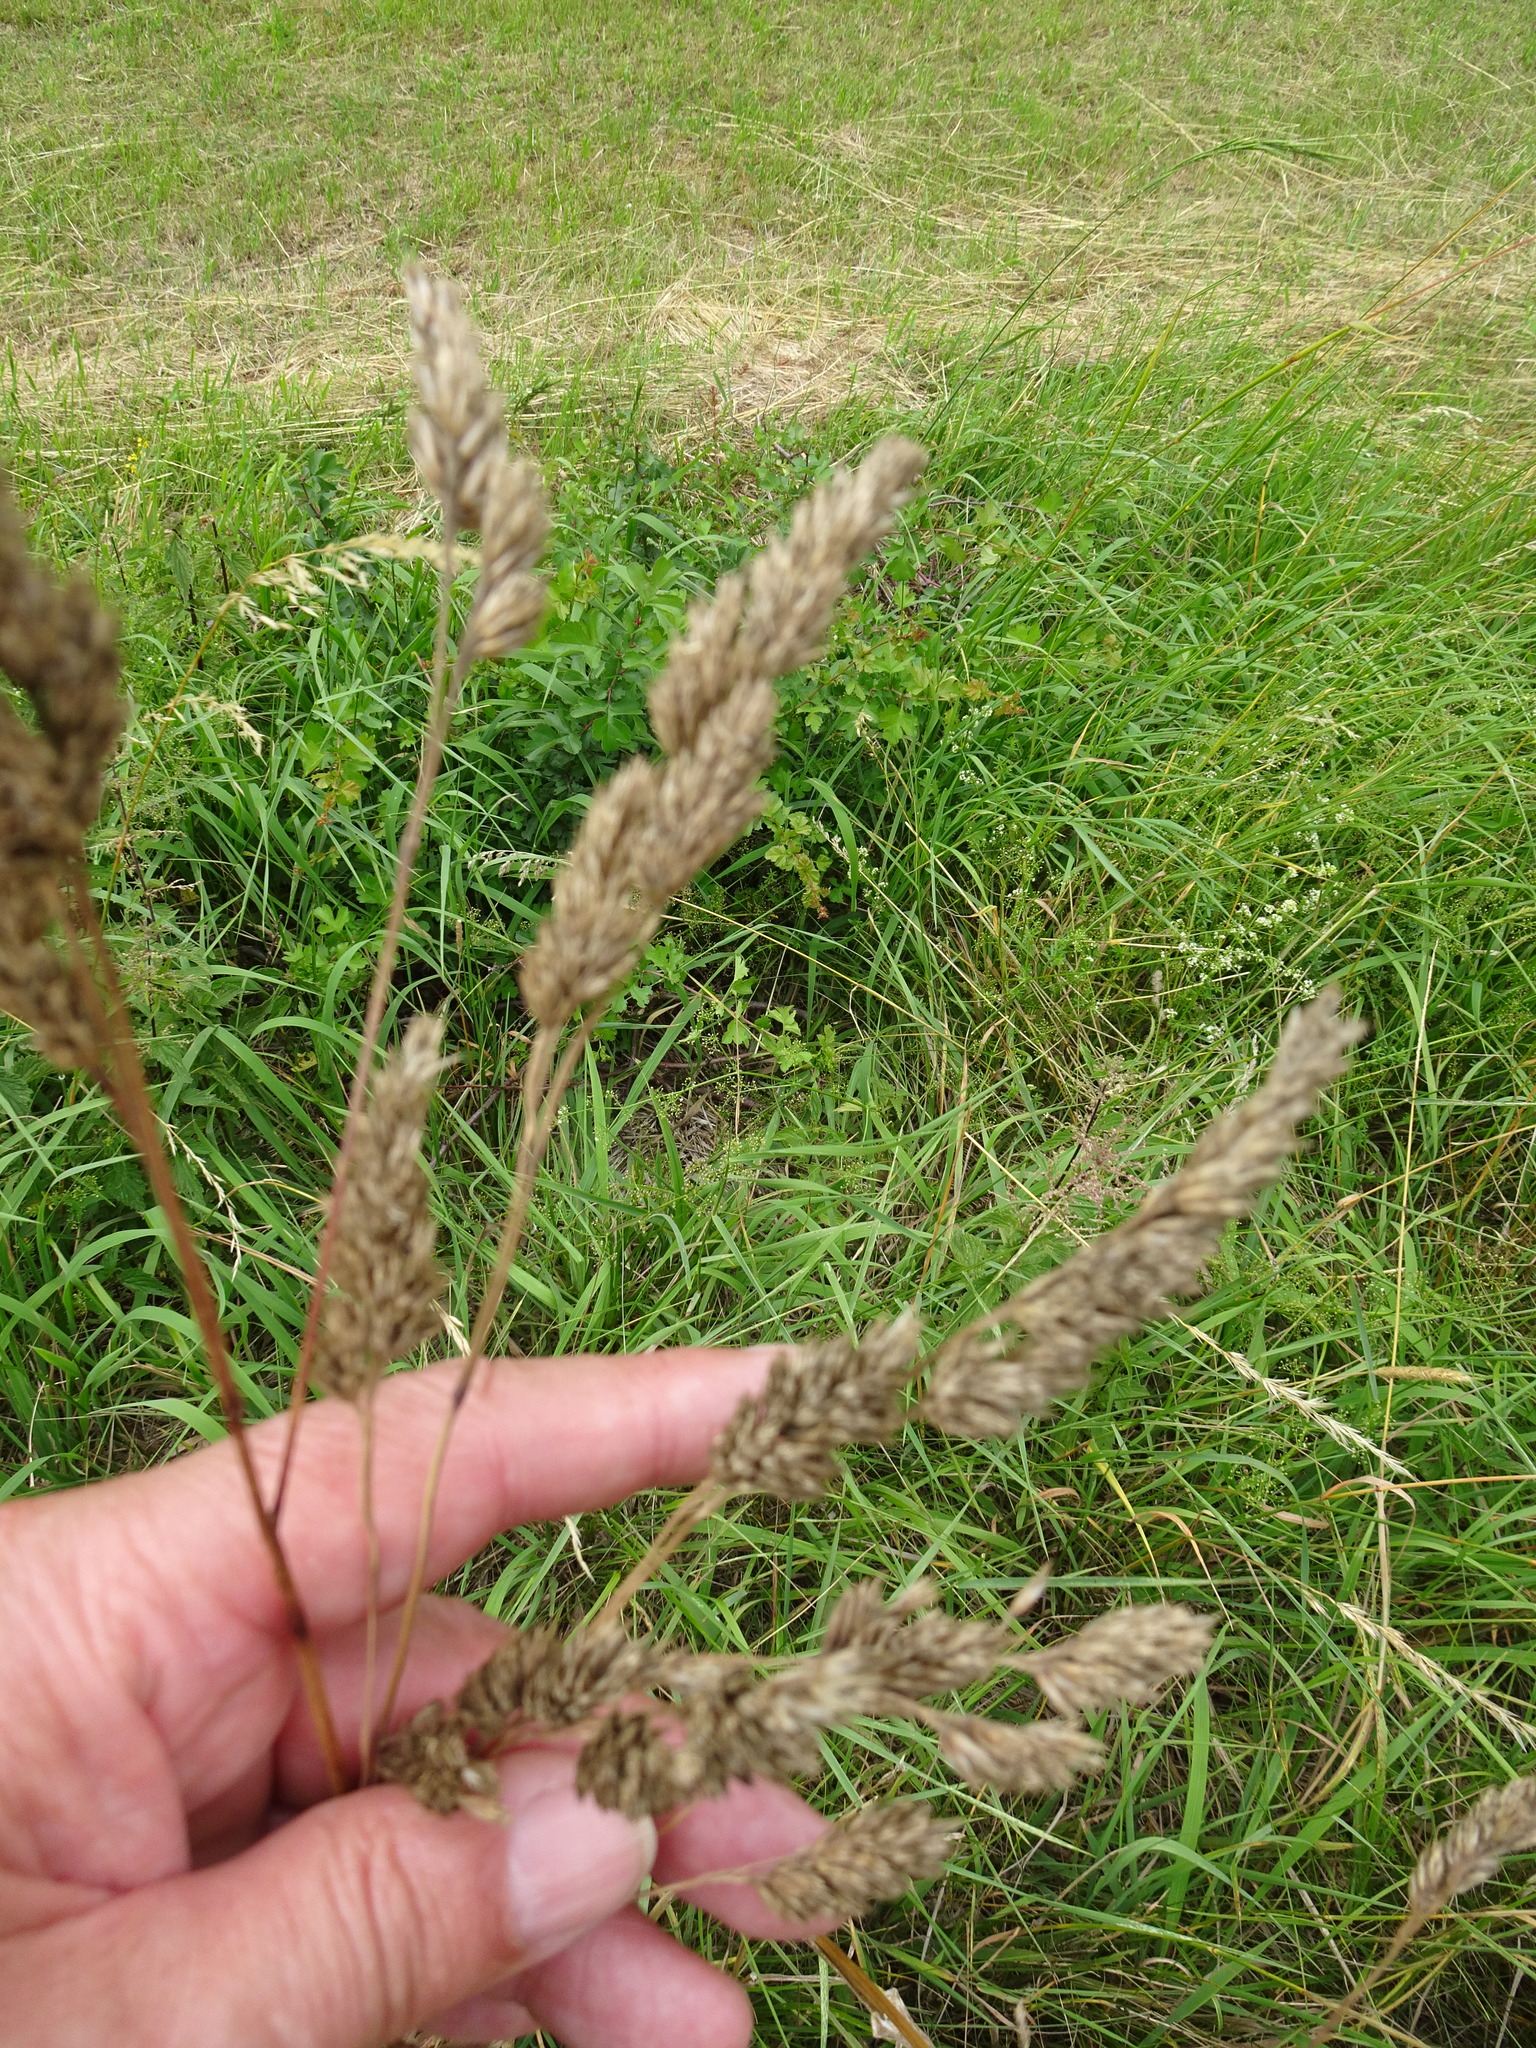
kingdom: Plantae
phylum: Tracheophyta
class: Liliopsida
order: Poales
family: Poaceae
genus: Dactylis
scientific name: Dactylis glomerata
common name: Orchardgrass
